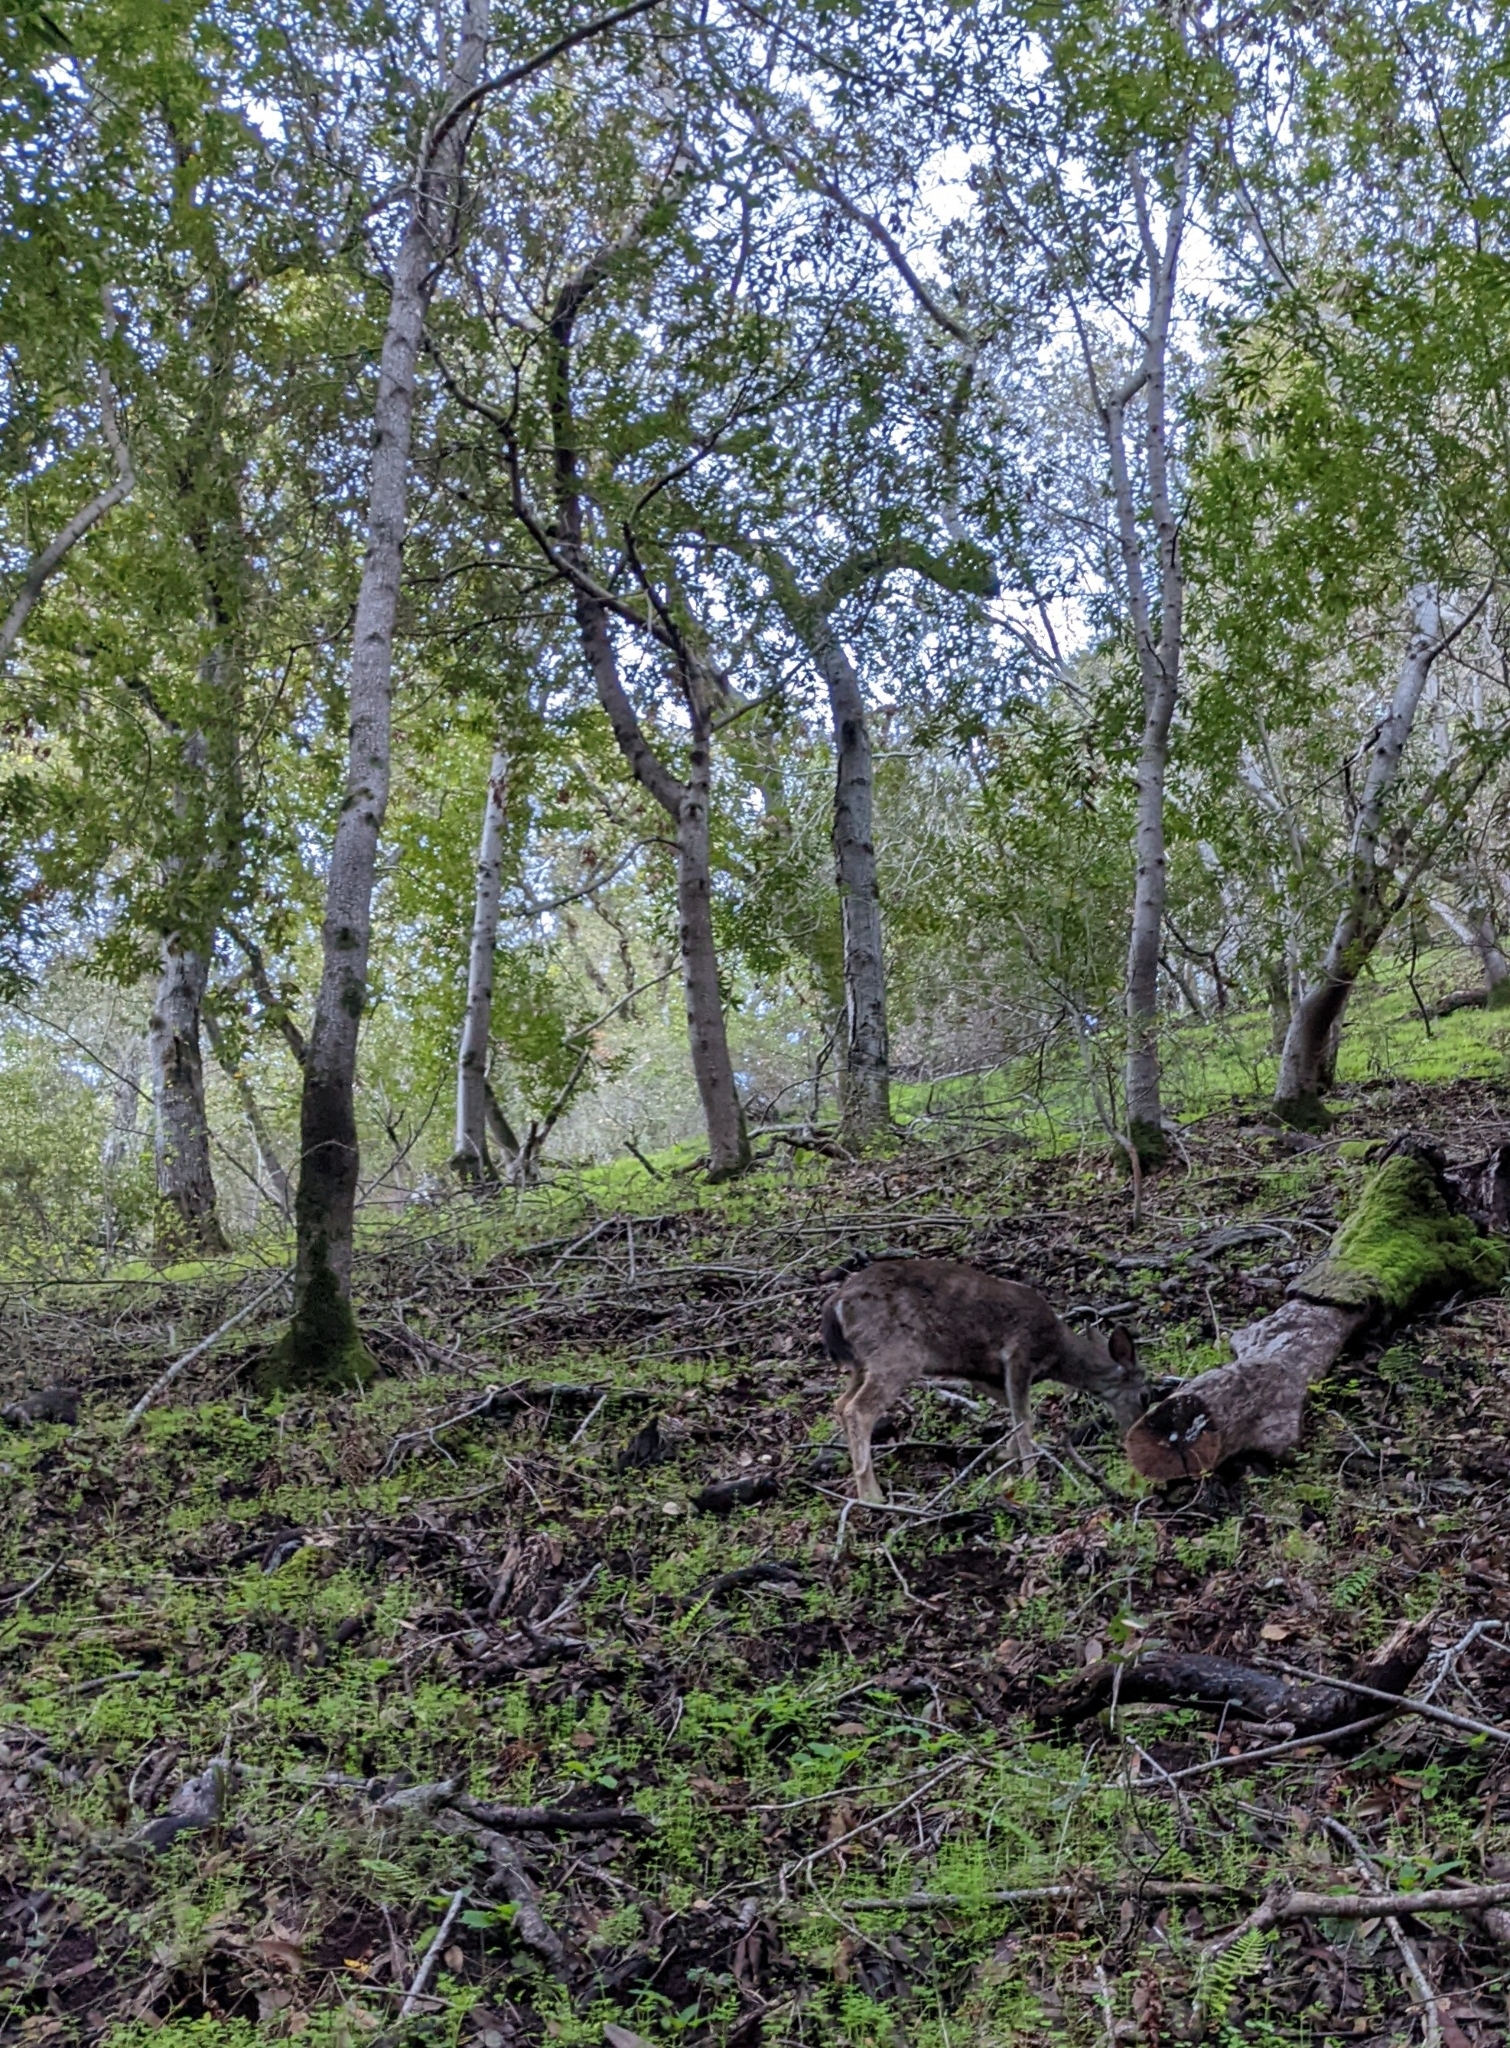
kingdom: Animalia
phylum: Chordata
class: Mammalia
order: Artiodactyla
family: Cervidae
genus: Odocoileus
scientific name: Odocoileus hemionus
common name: Mule deer
